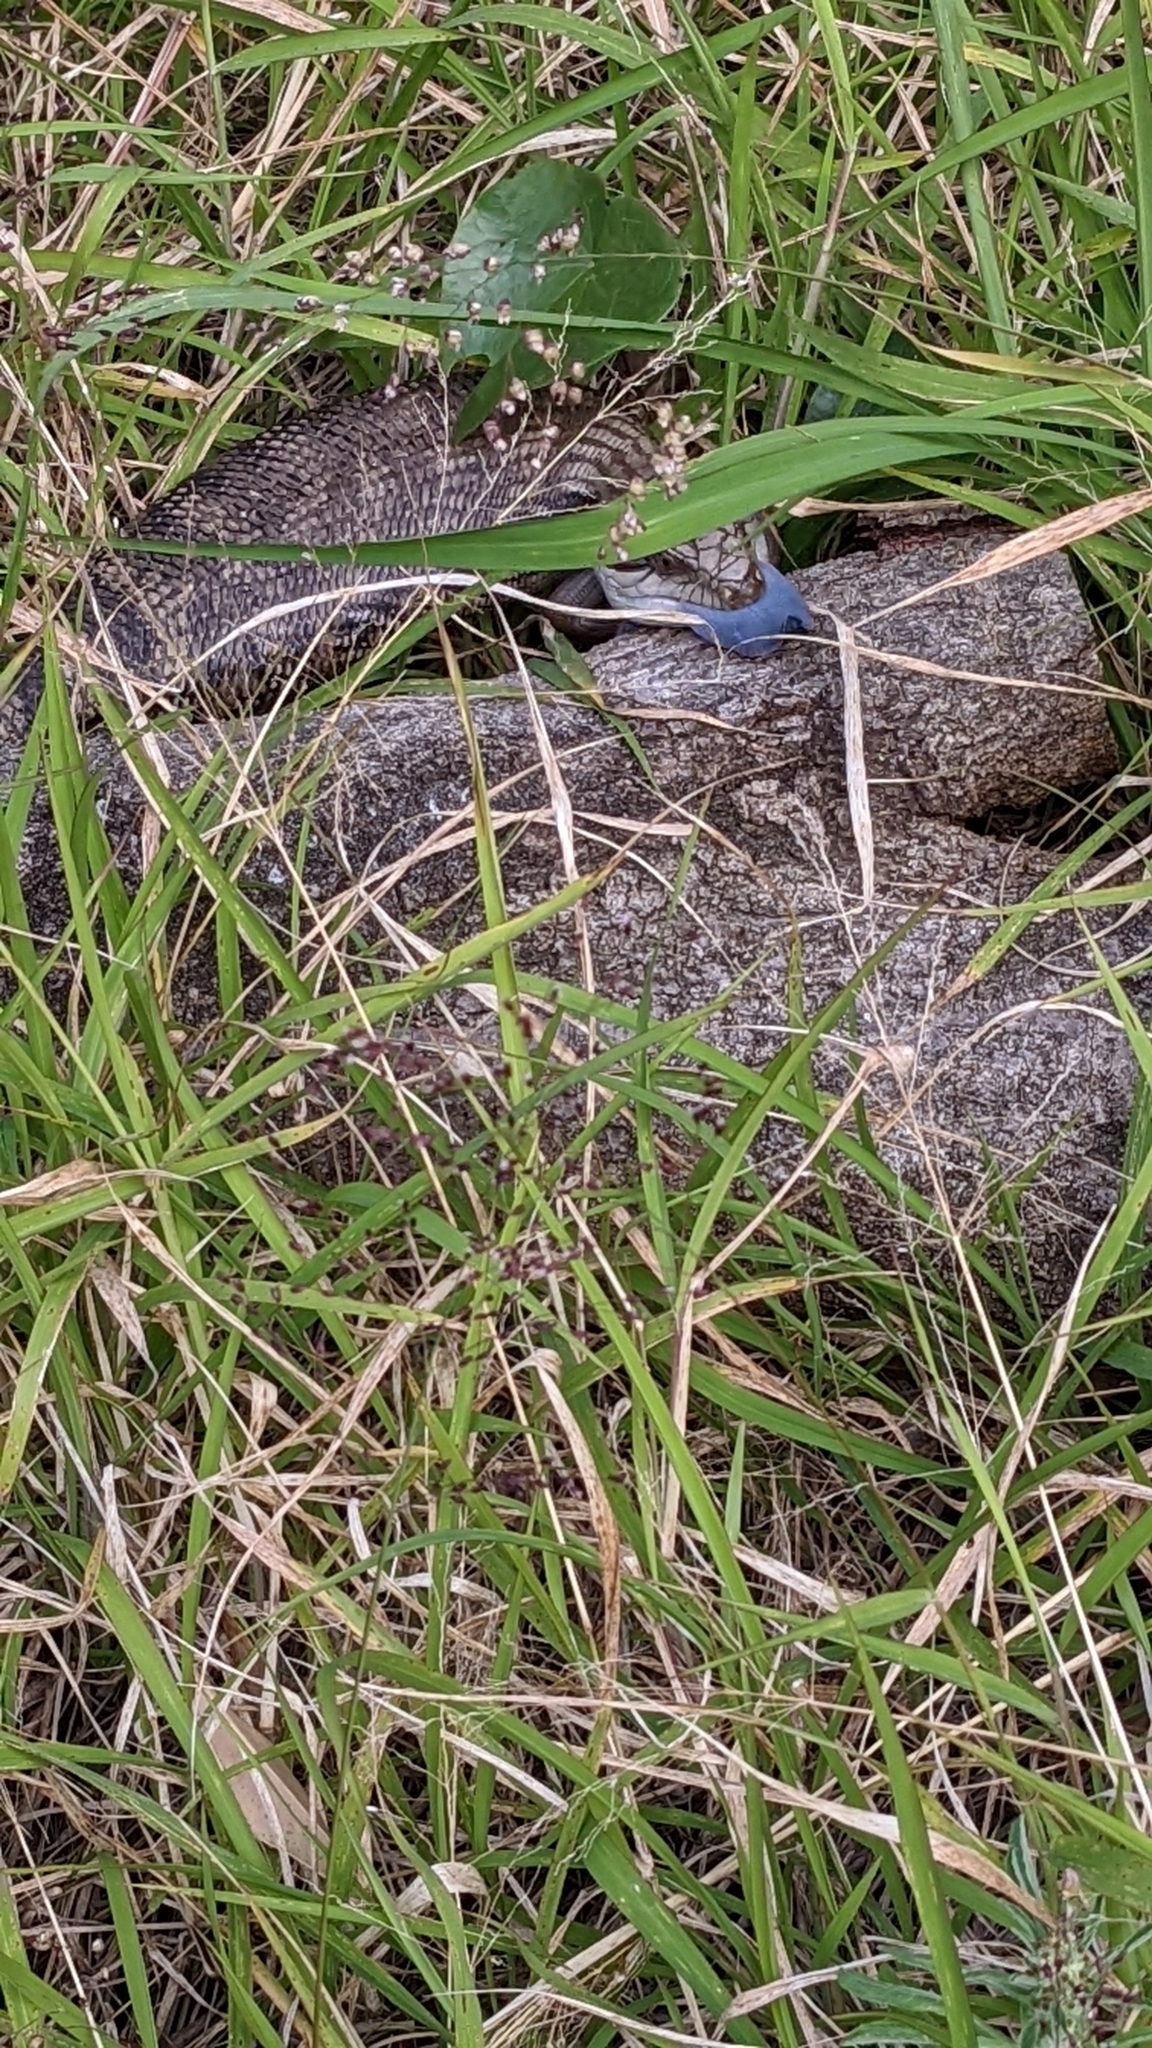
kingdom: Animalia
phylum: Chordata
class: Squamata
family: Scincidae
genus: Tiliqua
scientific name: Tiliqua scincoides
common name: Common bluetongue
